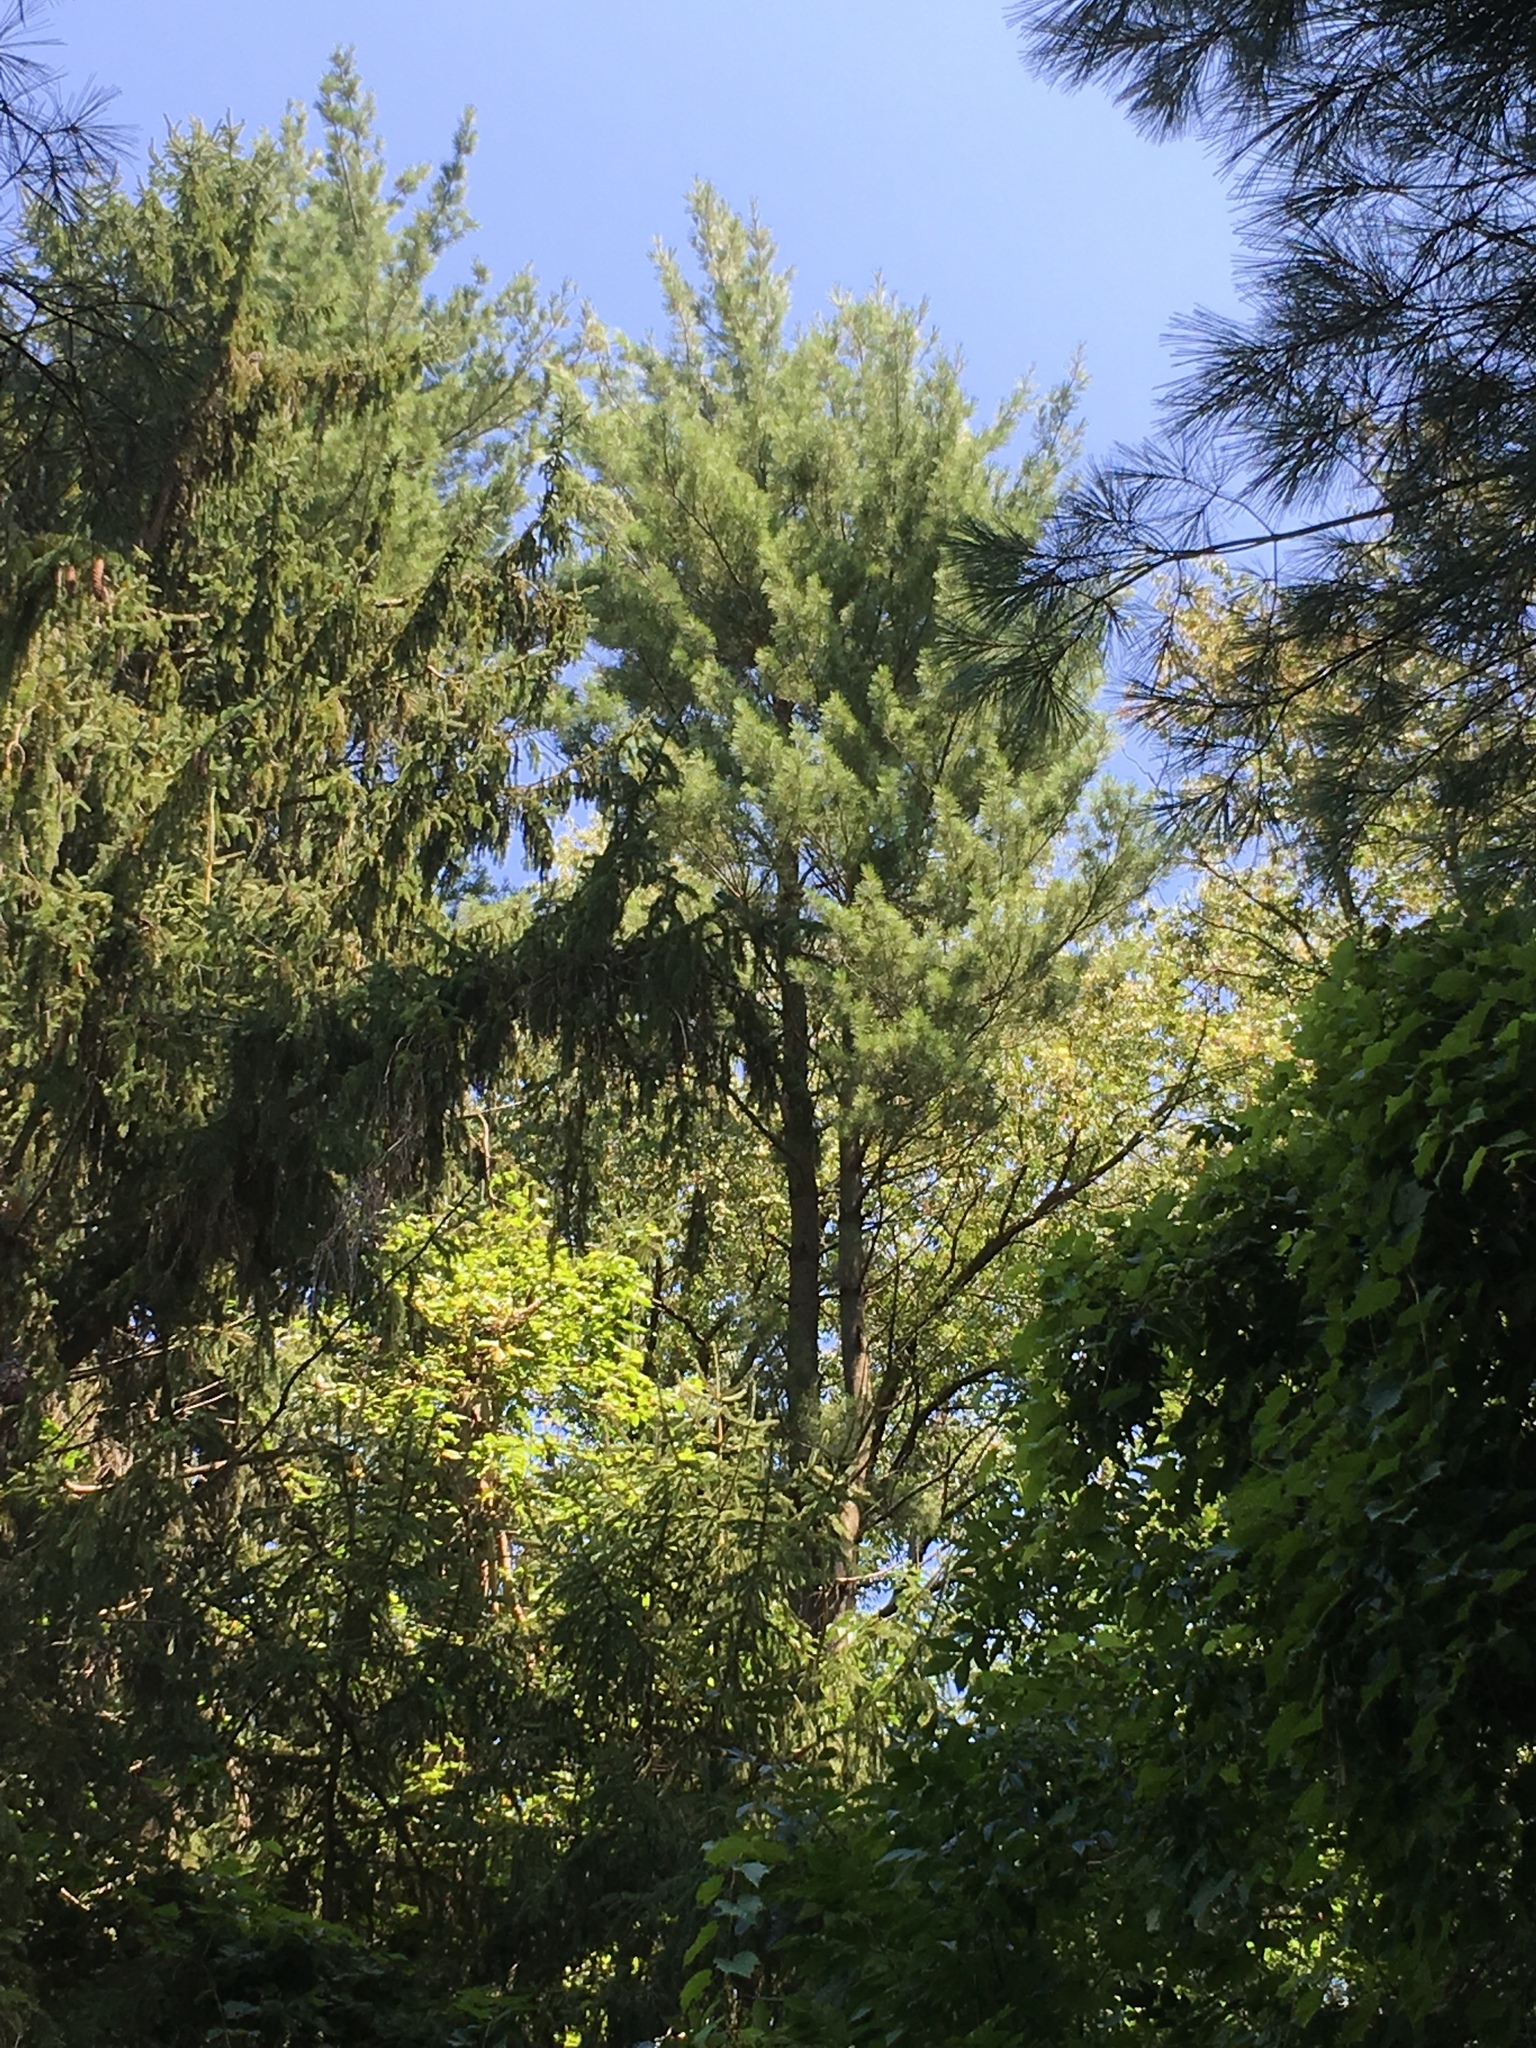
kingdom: Plantae
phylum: Tracheophyta
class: Pinopsida
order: Pinales
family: Pinaceae
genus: Pinus
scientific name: Pinus strobus
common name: Weymouth pine
